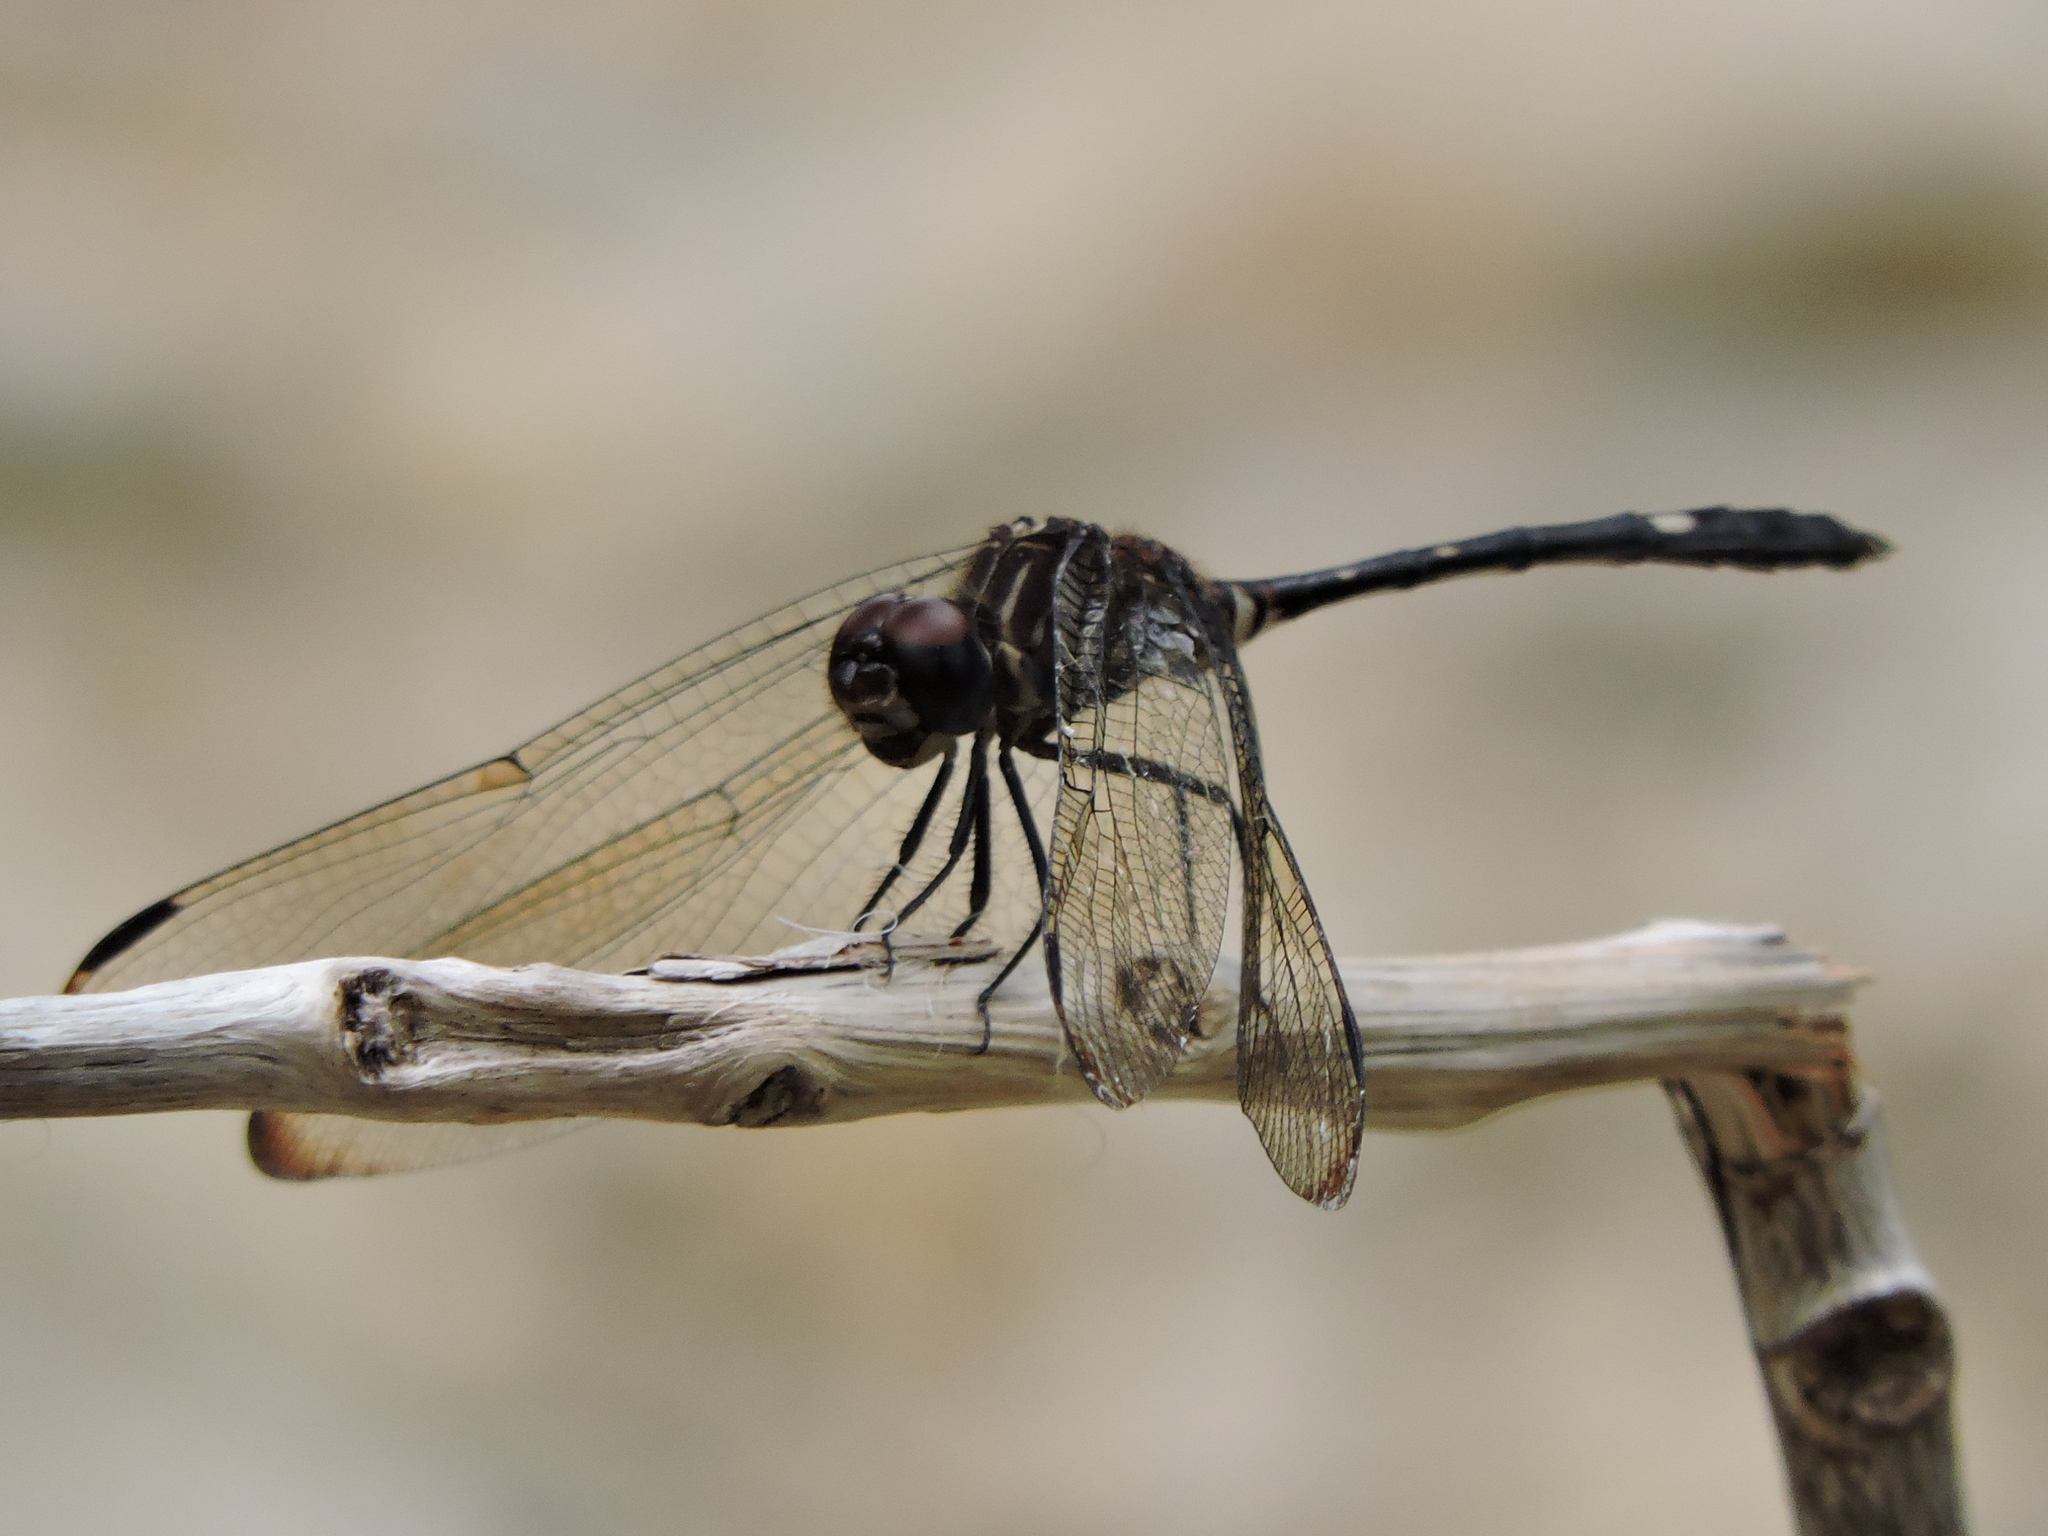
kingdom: Animalia
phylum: Arthropoda
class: Insecta
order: Odonata
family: Libellulidae
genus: Dythemis
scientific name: Dythemis velox
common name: Swift setwing
